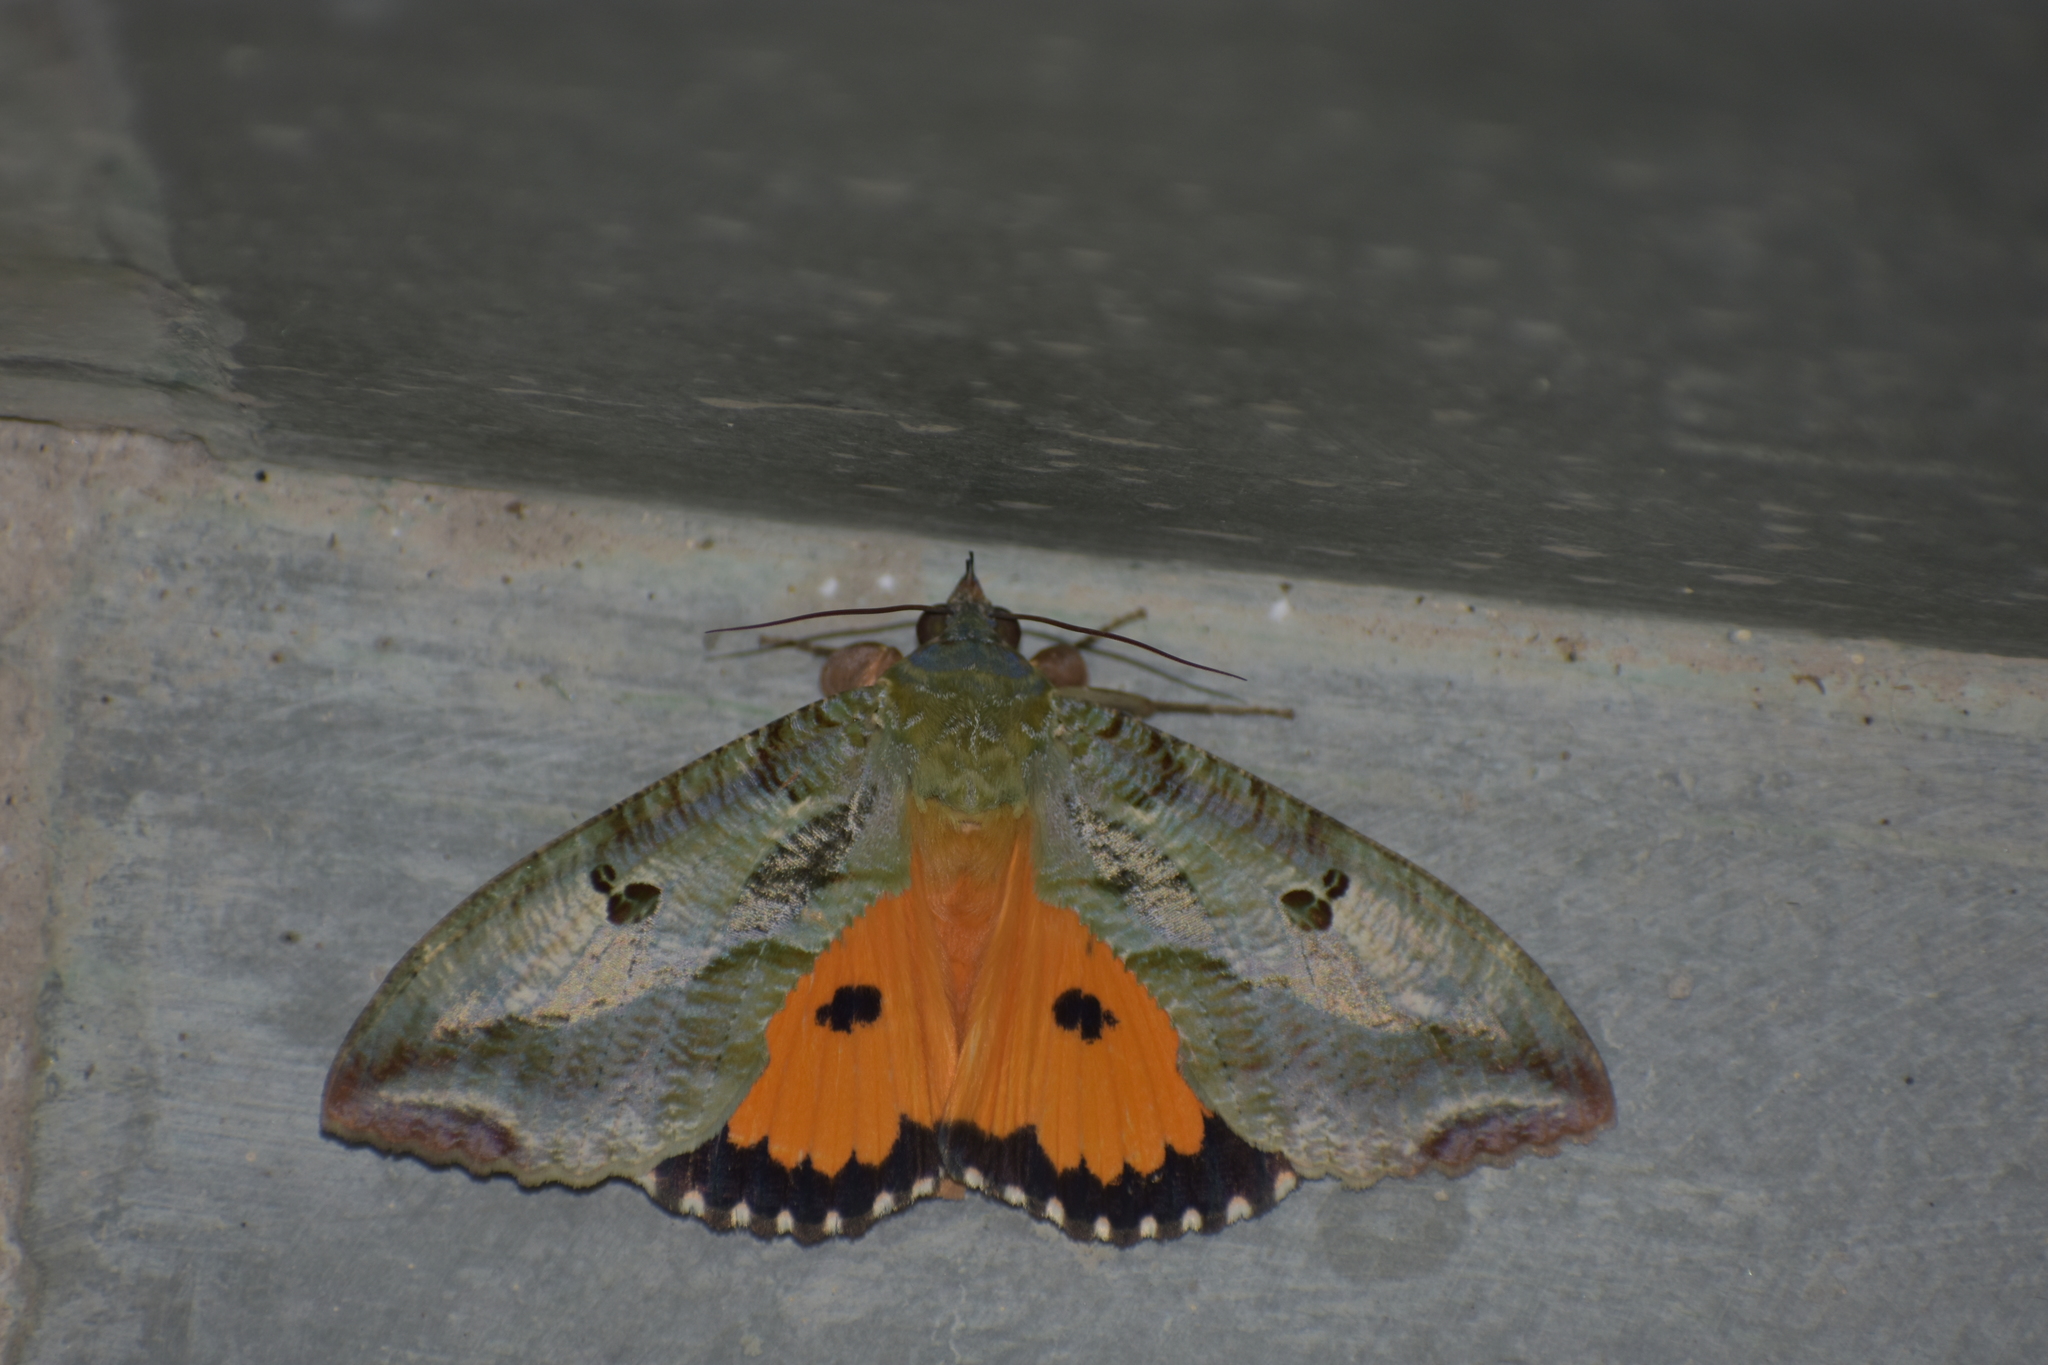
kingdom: Animalia
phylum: Arthropoda
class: Insecta
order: Lepidoptera
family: Erebidae
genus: Eudocima
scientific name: Eudocima materna
